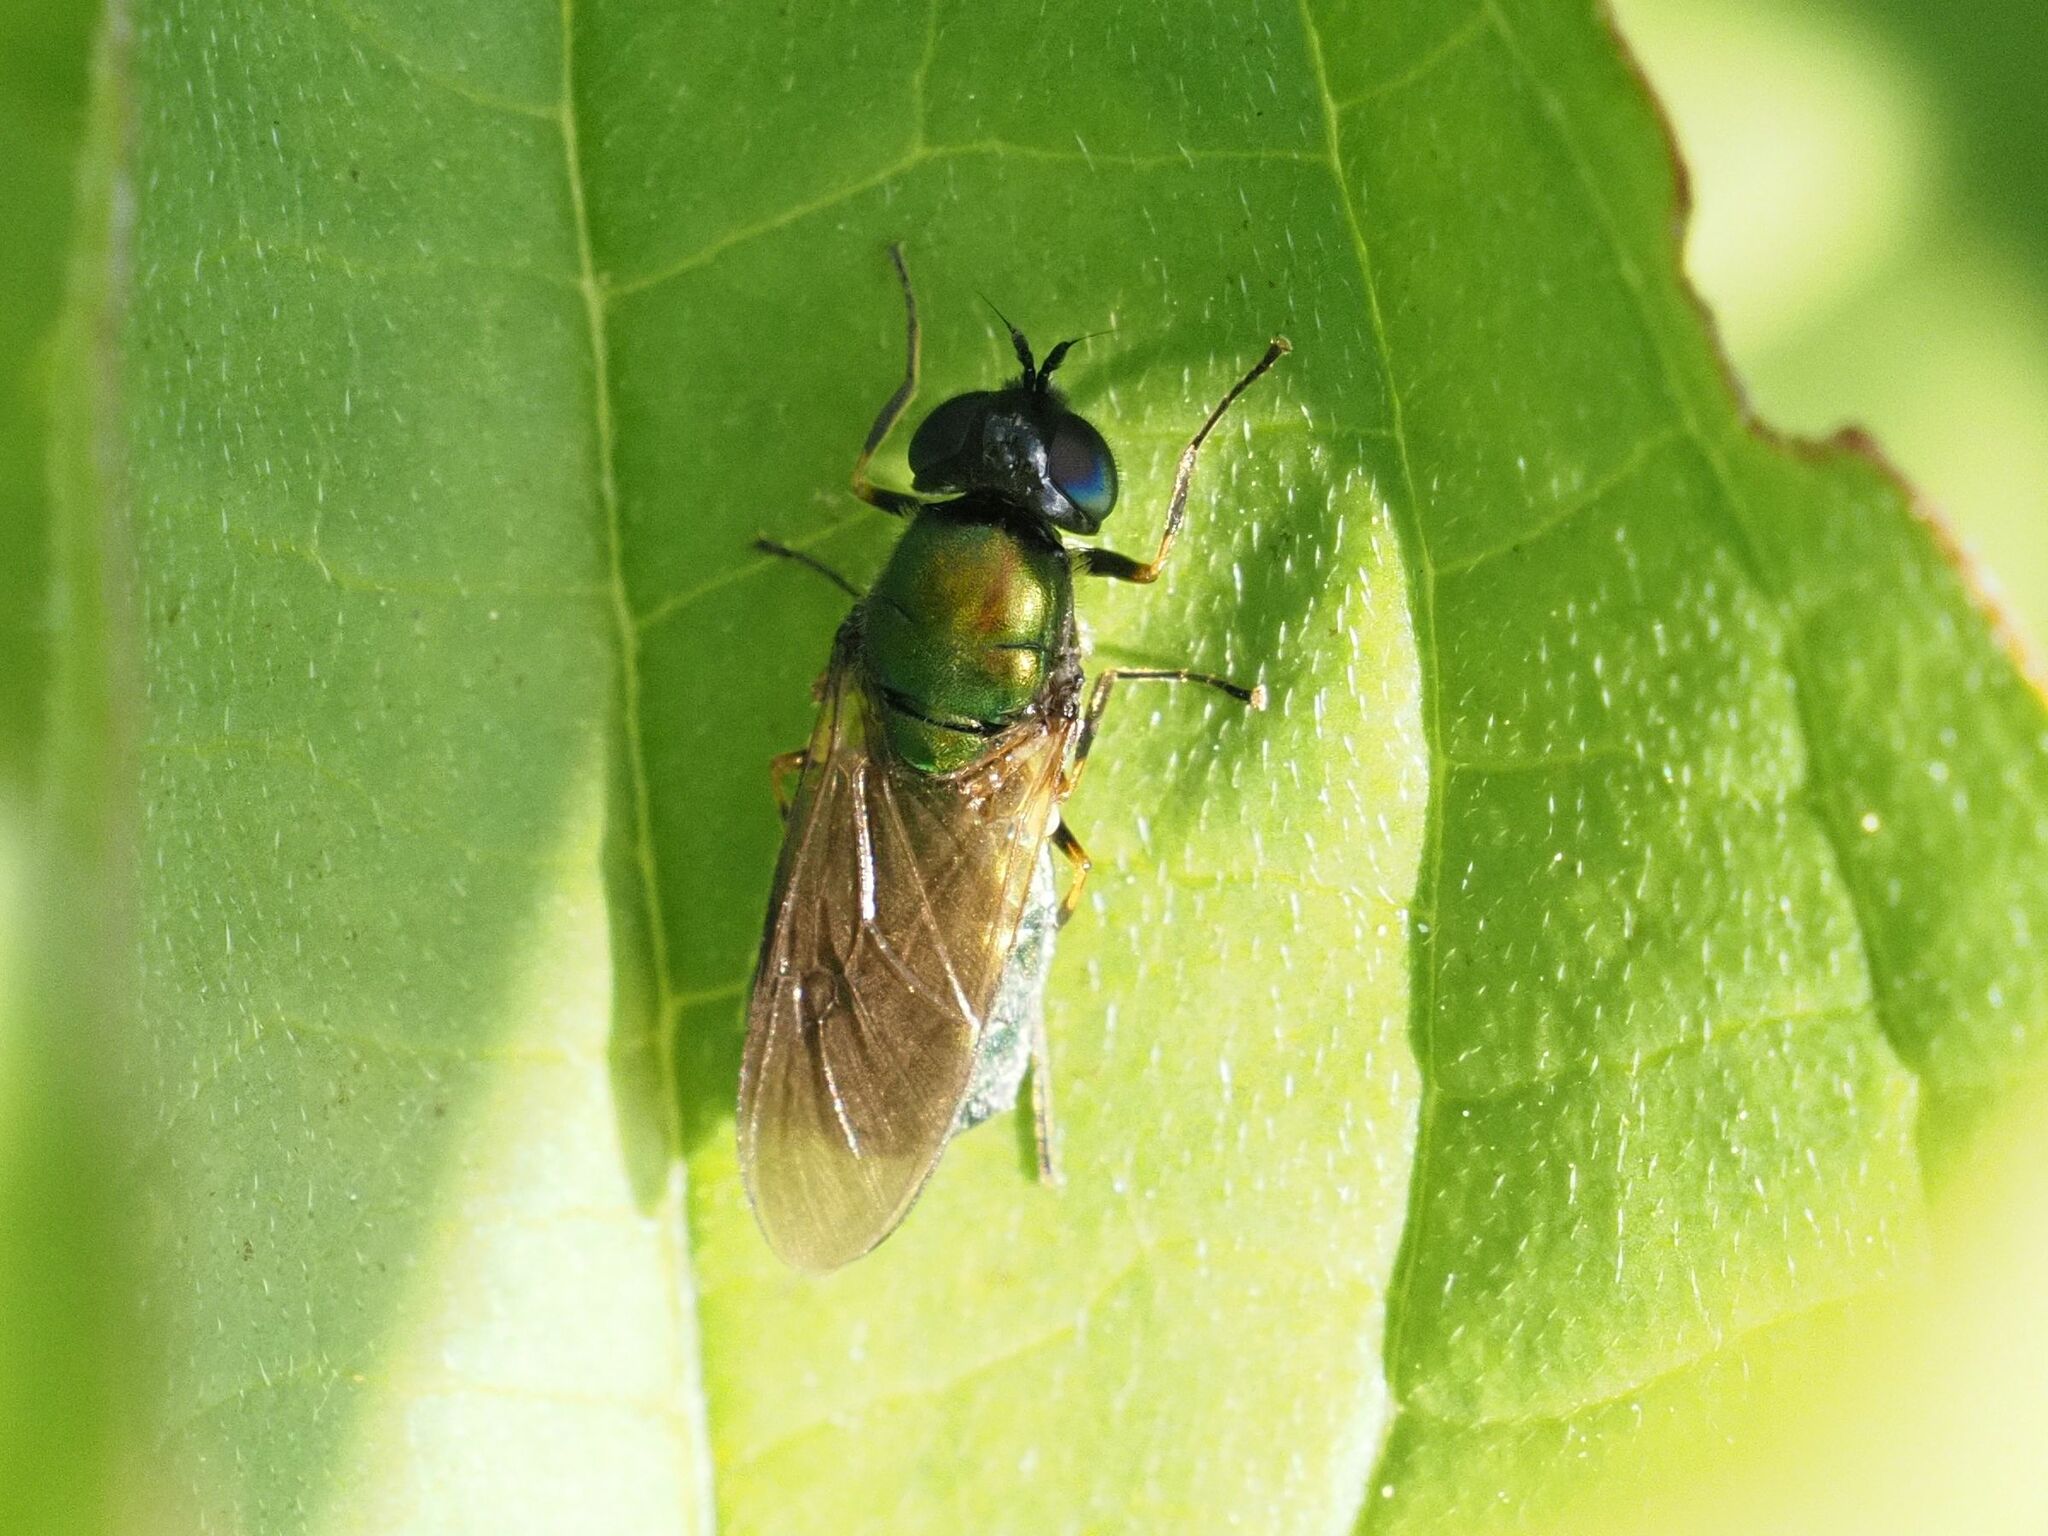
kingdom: Animalia
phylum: Arthropoda
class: Insecta
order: Diptera
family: Stratiomyidae
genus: Chloromyia
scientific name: Chloromyia formosa
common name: Soldier fly
